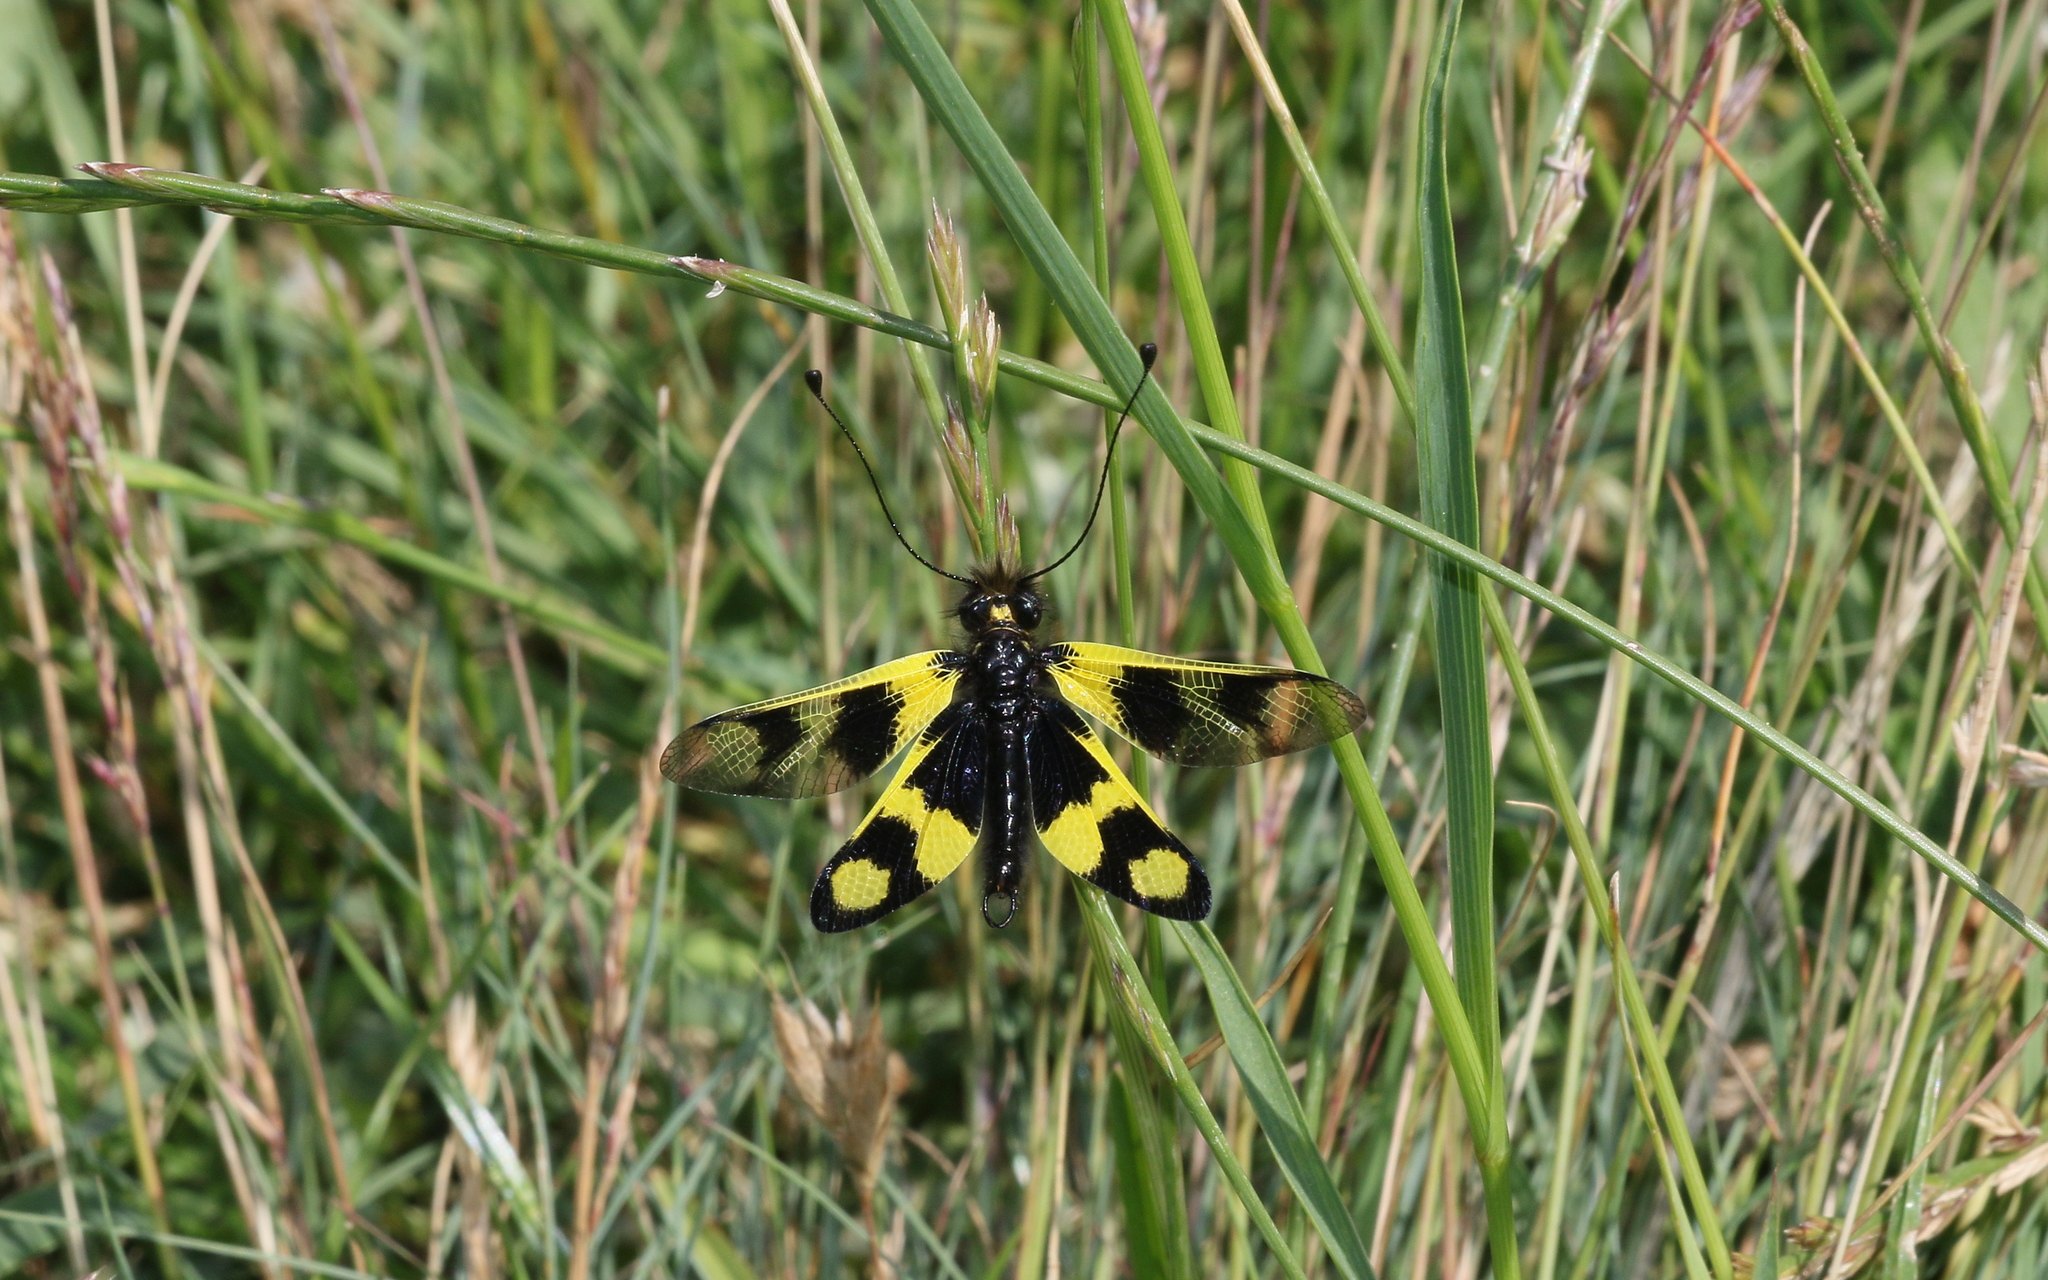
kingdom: Animalia
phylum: Arthropoda
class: Insecta
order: Neuroptera
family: Ascalaphidae
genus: Libelloides
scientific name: Libelloides macaronius
